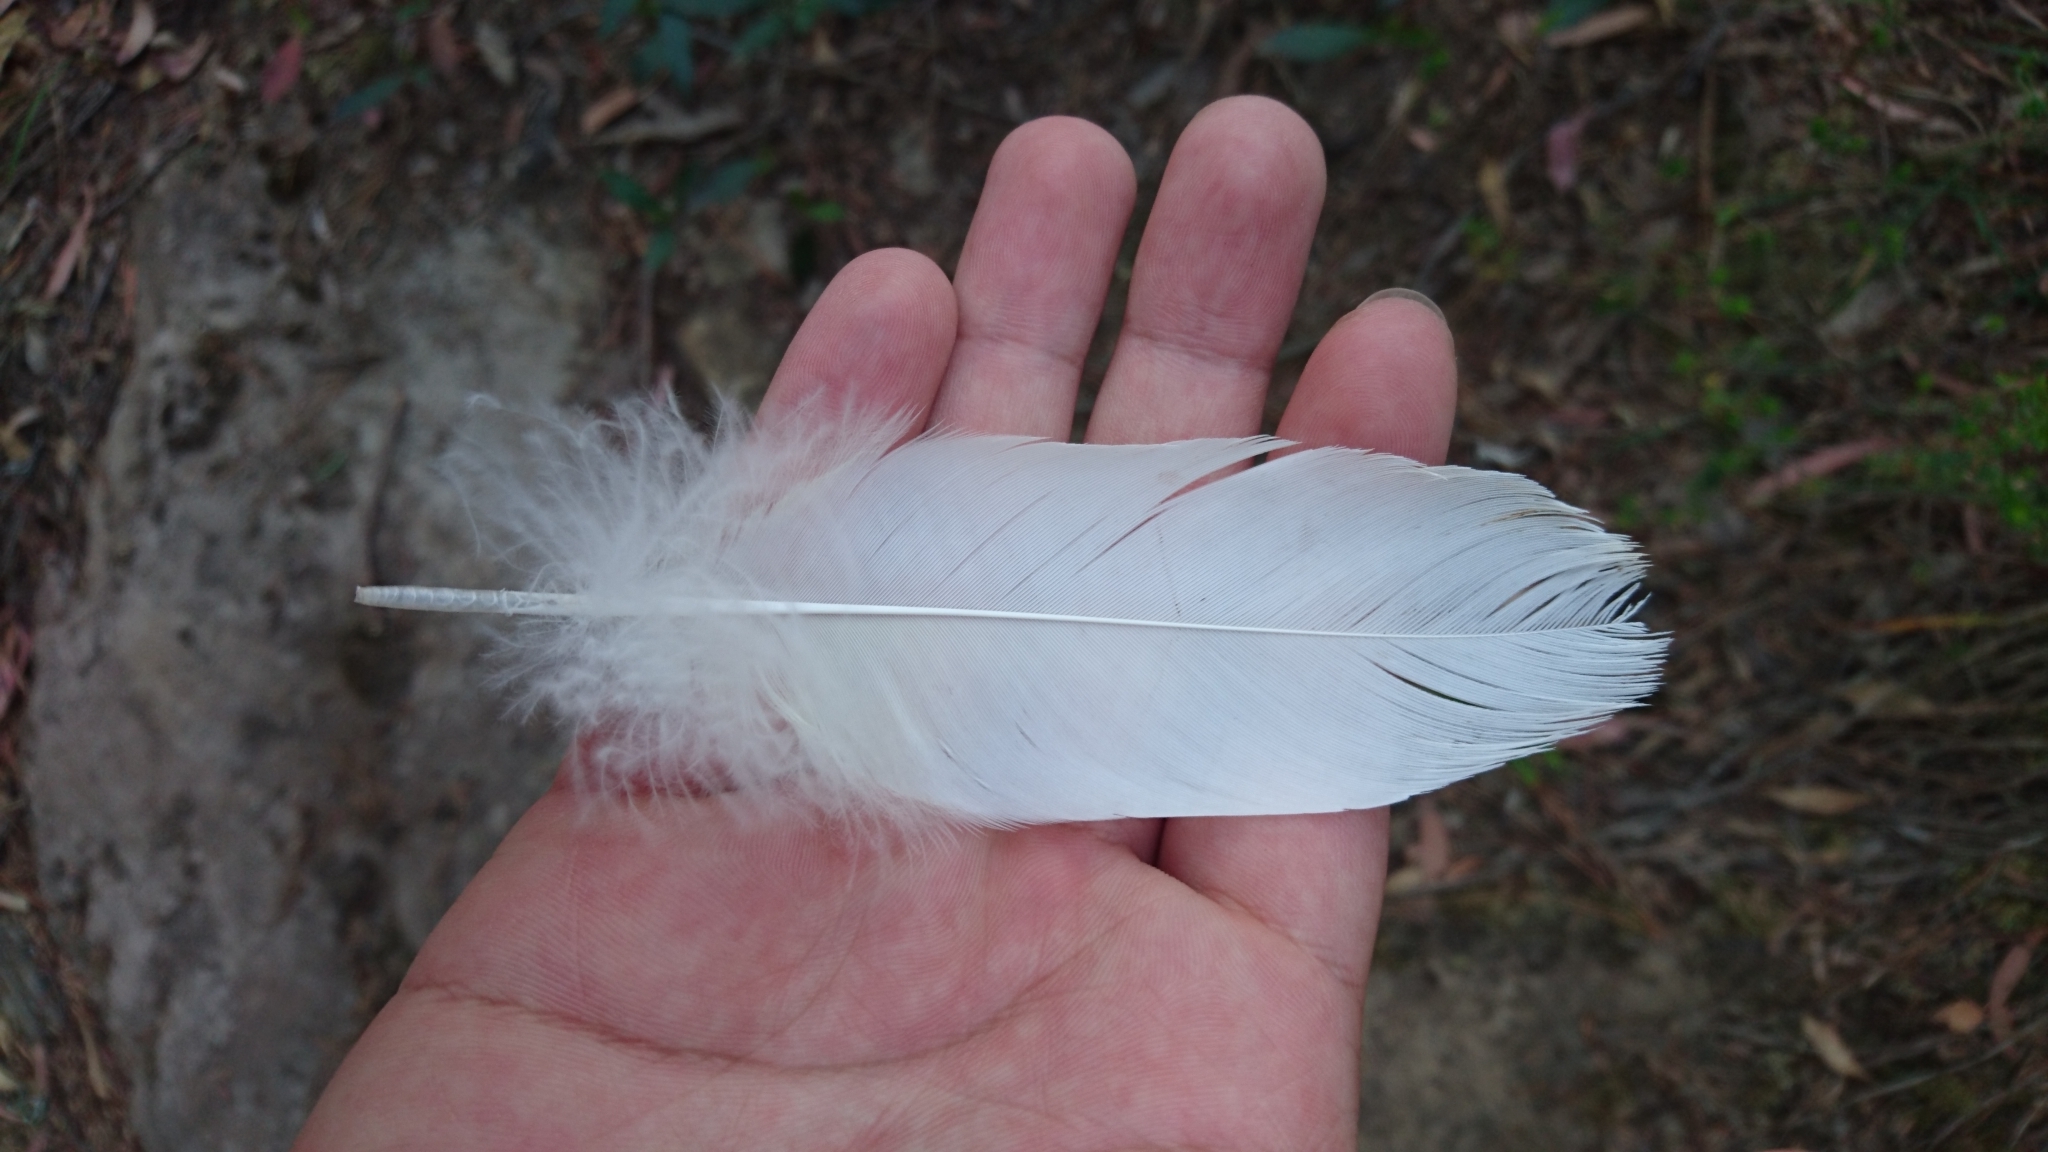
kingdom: Animalia
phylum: Chordata
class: Aves
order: Psittaciformes
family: Psittacidae
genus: Cacatua
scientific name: Cacatua galerita
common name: Sulphur-crested cockatoo
